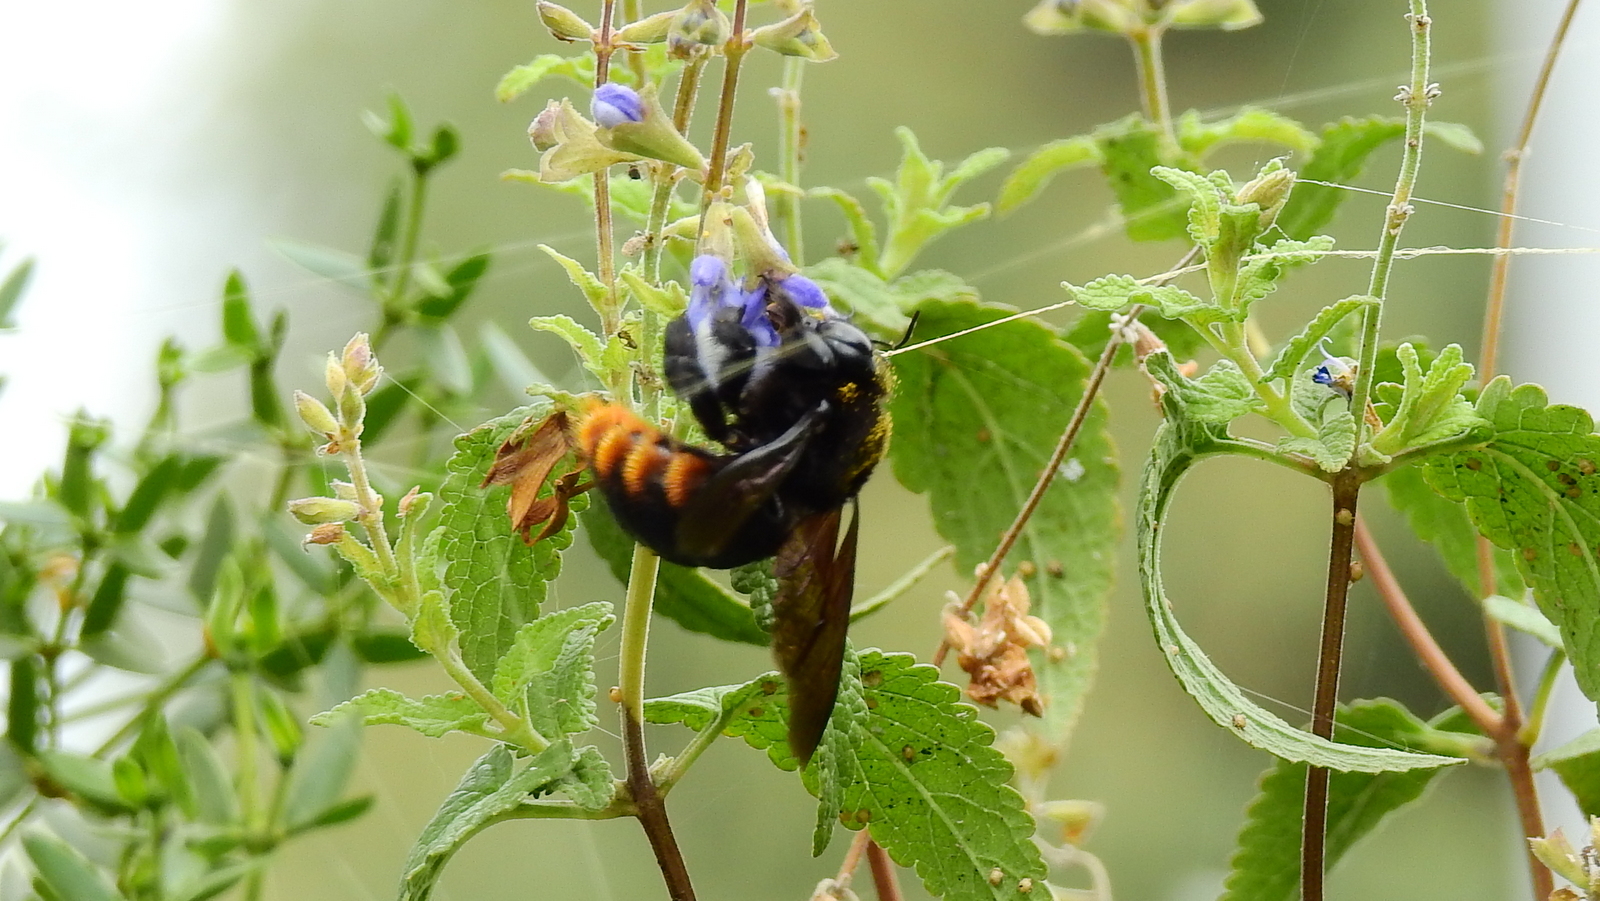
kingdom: Animalia
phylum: Arthropoda
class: Insecta
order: Hymenoptera
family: Apidae
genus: Xylocopa
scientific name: Xylocopa augusti
